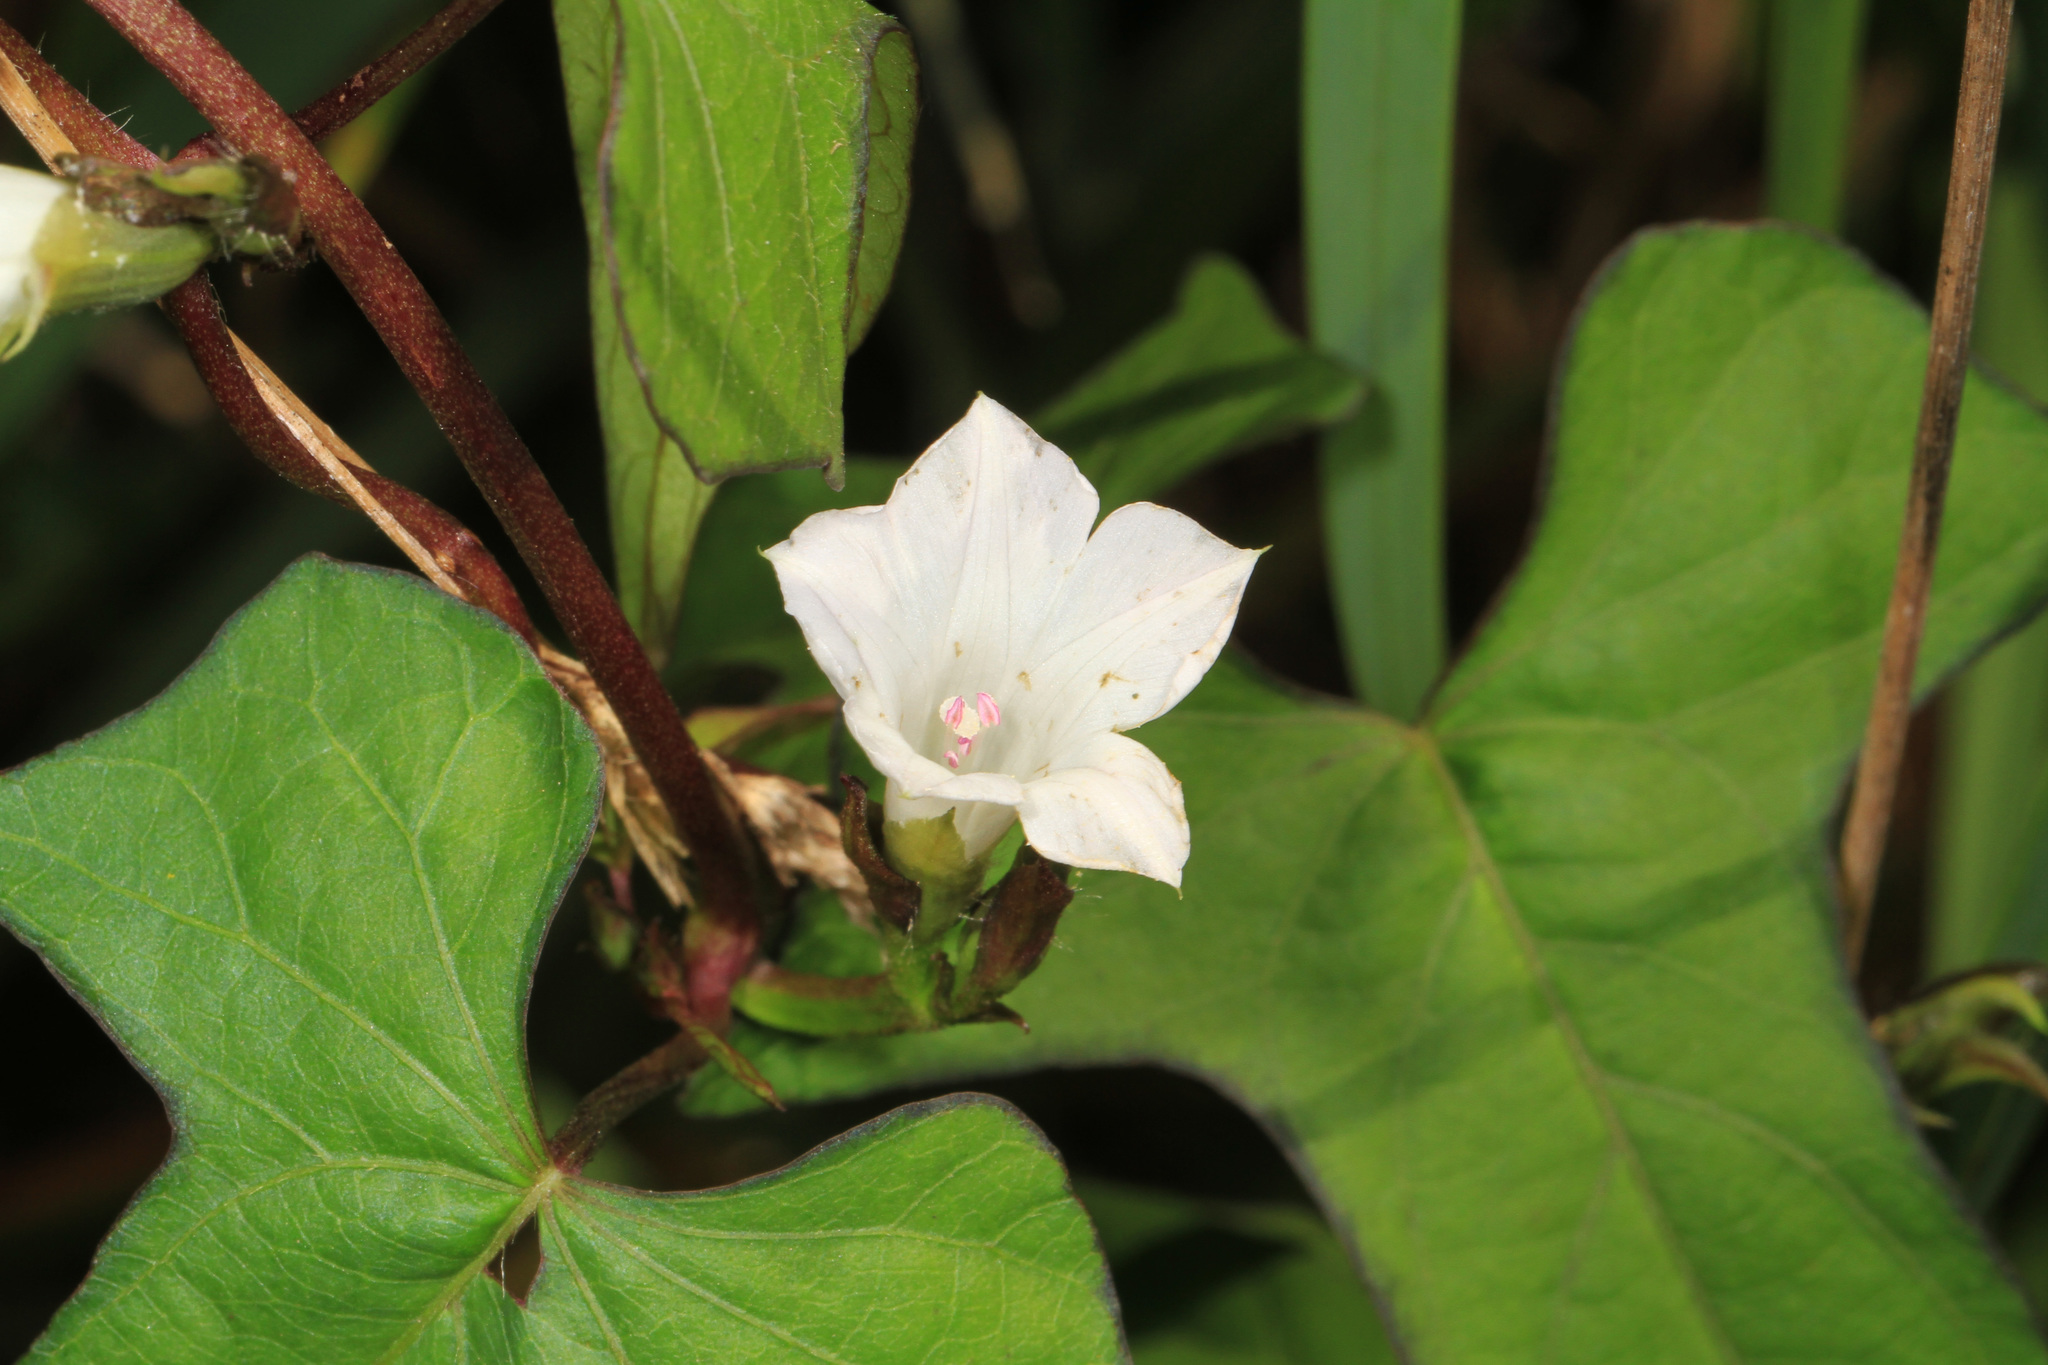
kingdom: Plantae
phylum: Tracheophyta
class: Magnoliopsida
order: Solanales
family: Convolvulaceae
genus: Ipomoea
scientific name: Ipomoea lacunosa
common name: White morning-glory
